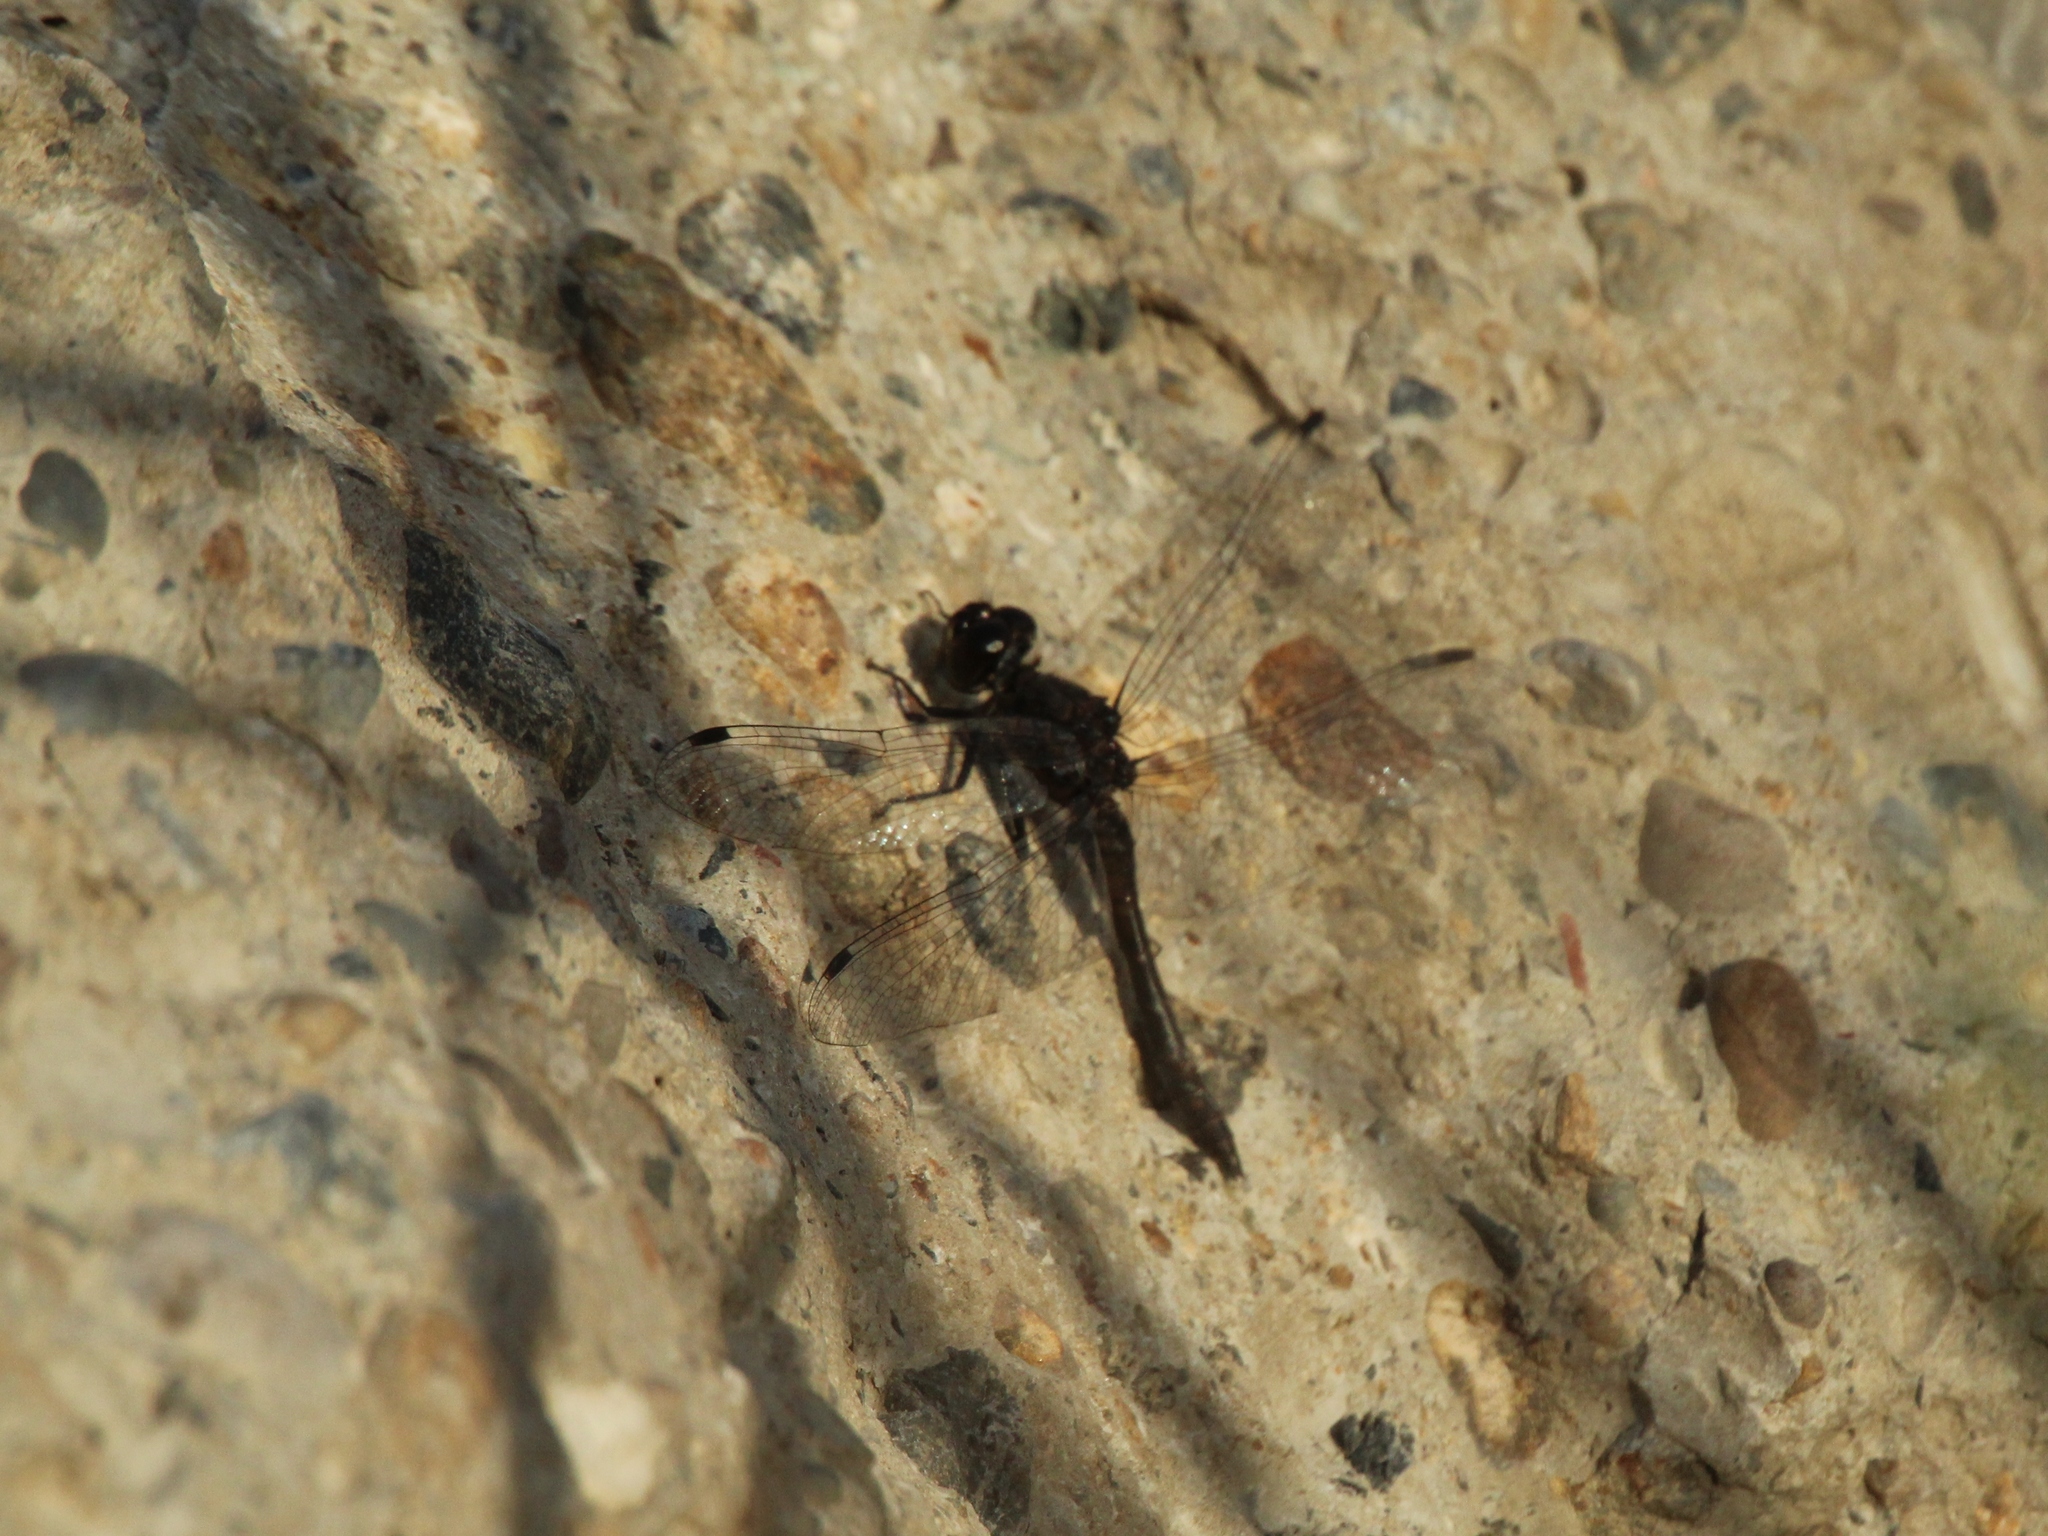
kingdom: Animalia
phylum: Arthropoda
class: Insecta
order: Odonata
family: Libellulidae
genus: Sympetrum
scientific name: Sympetrum danae
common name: Black darter
